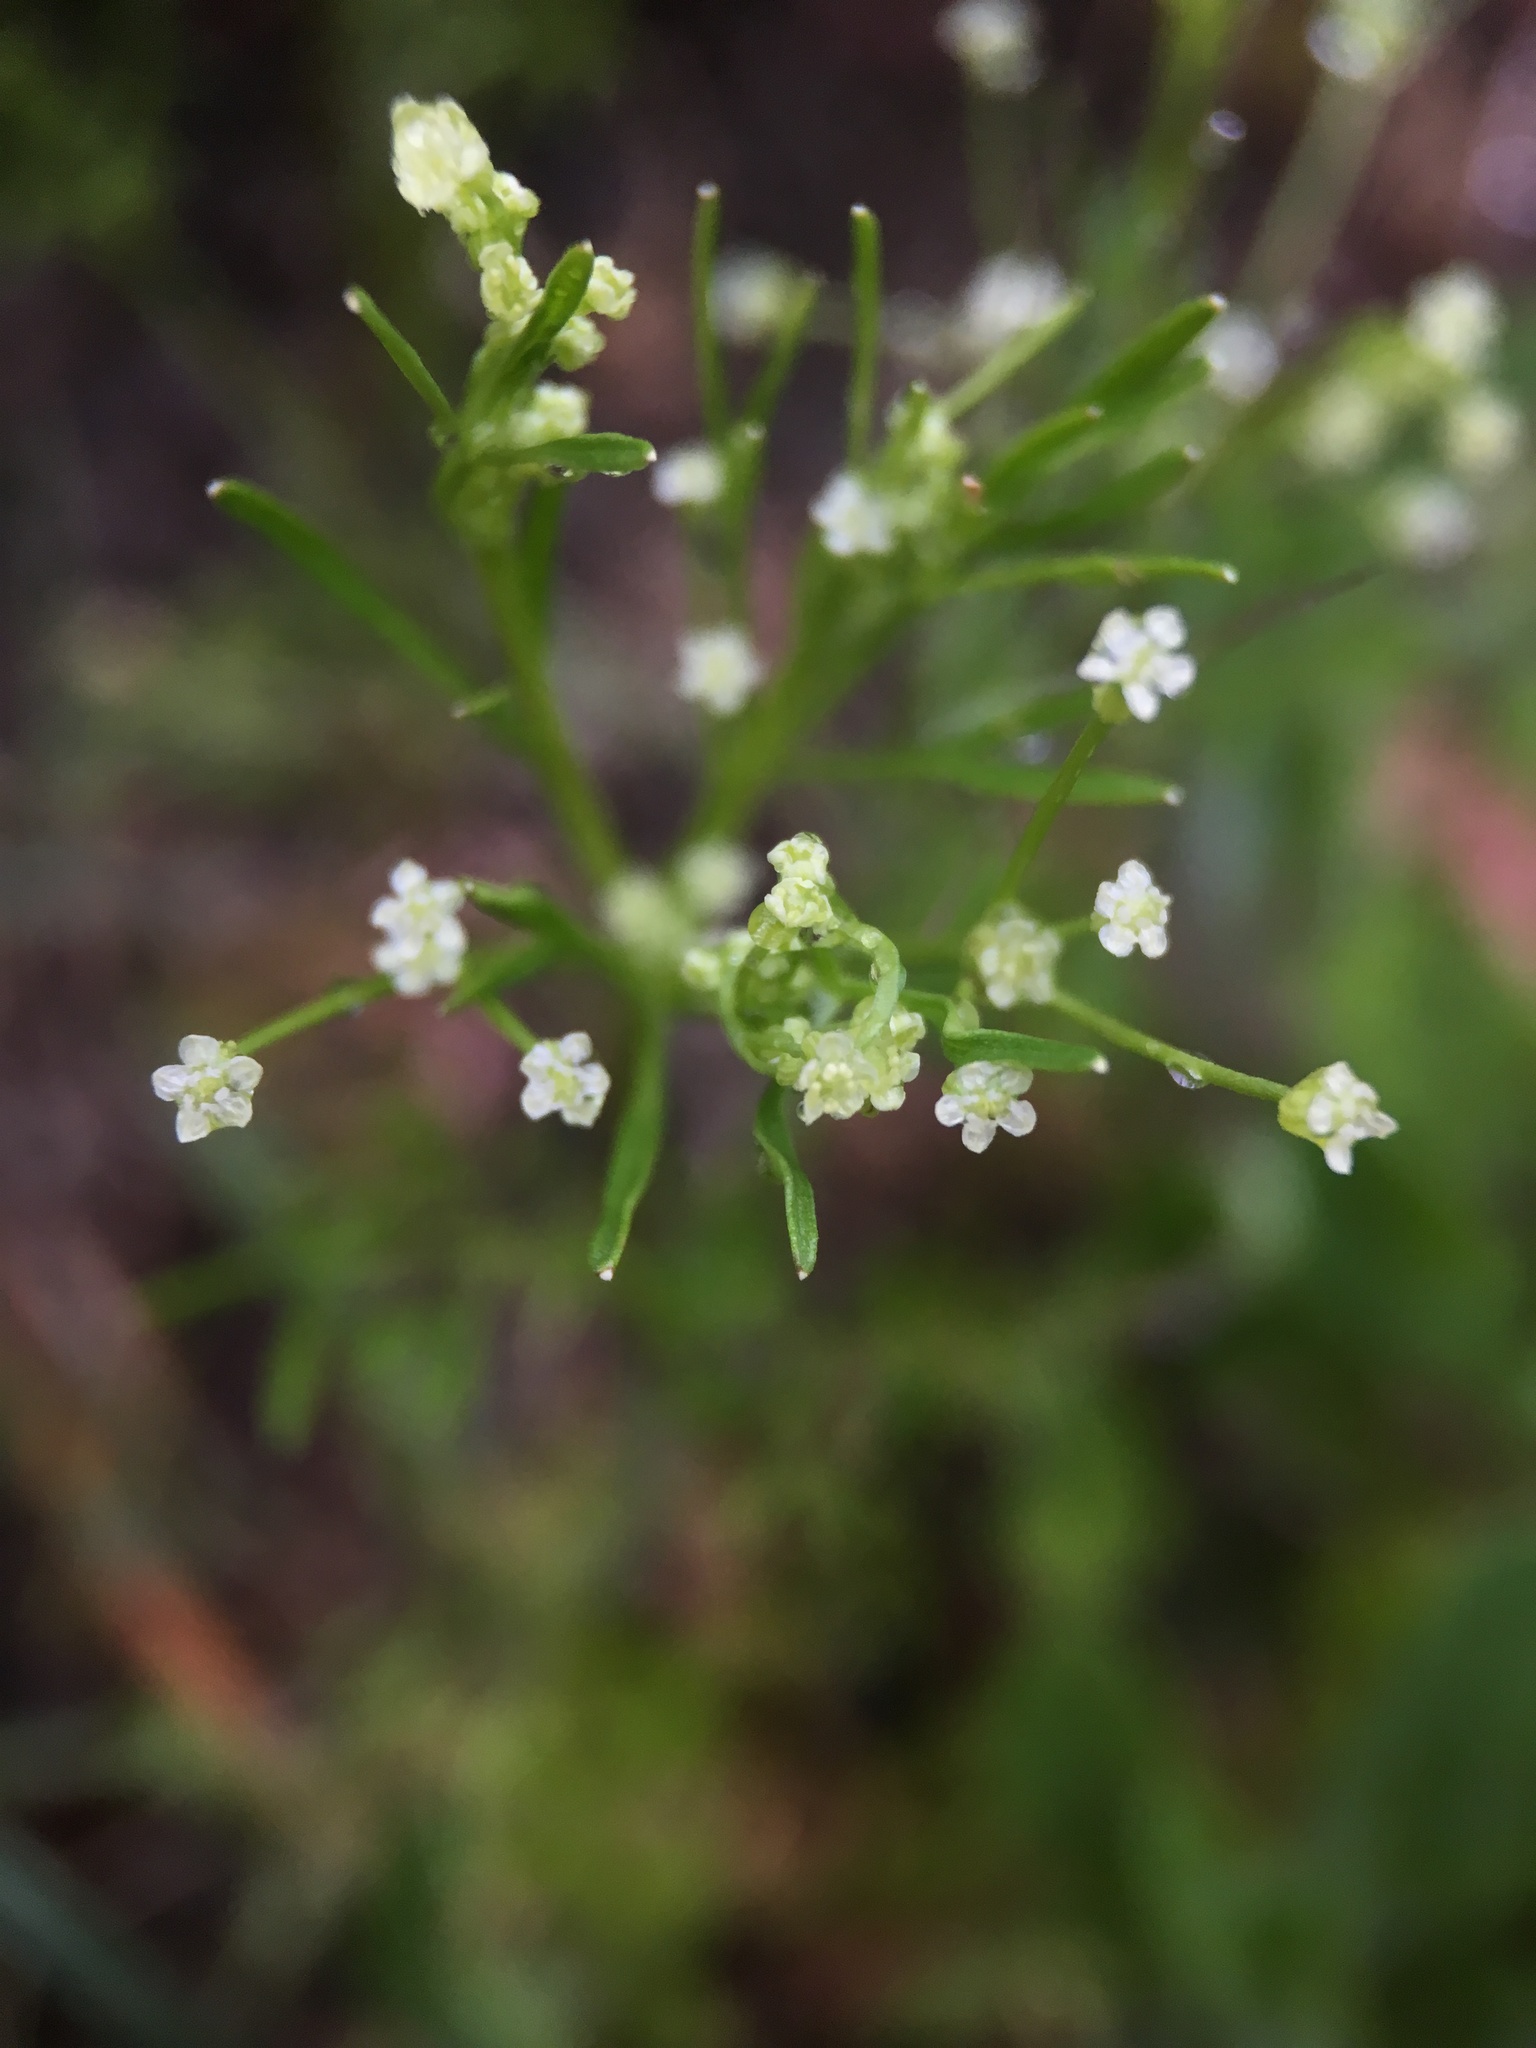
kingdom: Plantae
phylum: Tracheophyta
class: Magnoliopsida
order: Apiales
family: Apiaceae
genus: Apiastrum
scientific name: Apiastrum angustifolium
